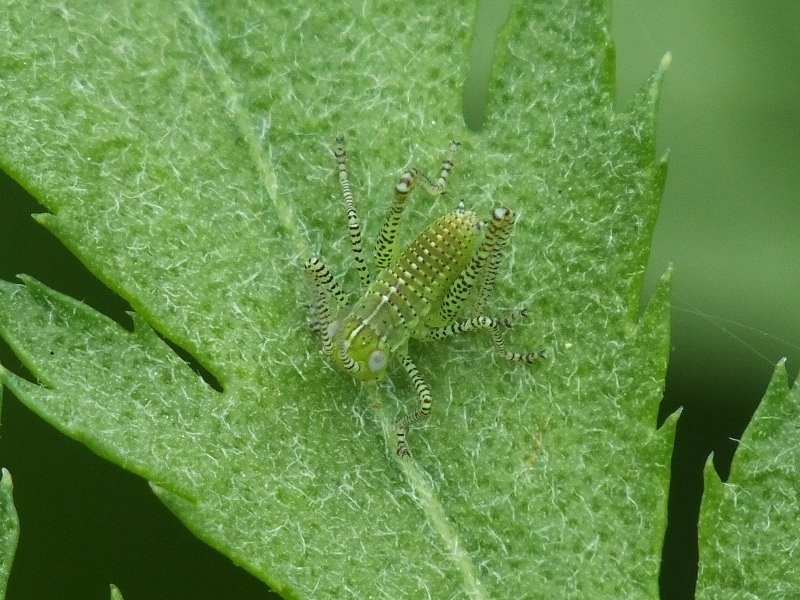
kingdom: Animalia
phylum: Arthropoda
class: Insecta
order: Orthoptera
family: Tettigoniidae
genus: Leptophyes
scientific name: Leptophyes albovittata
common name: Striped bush-cricket
